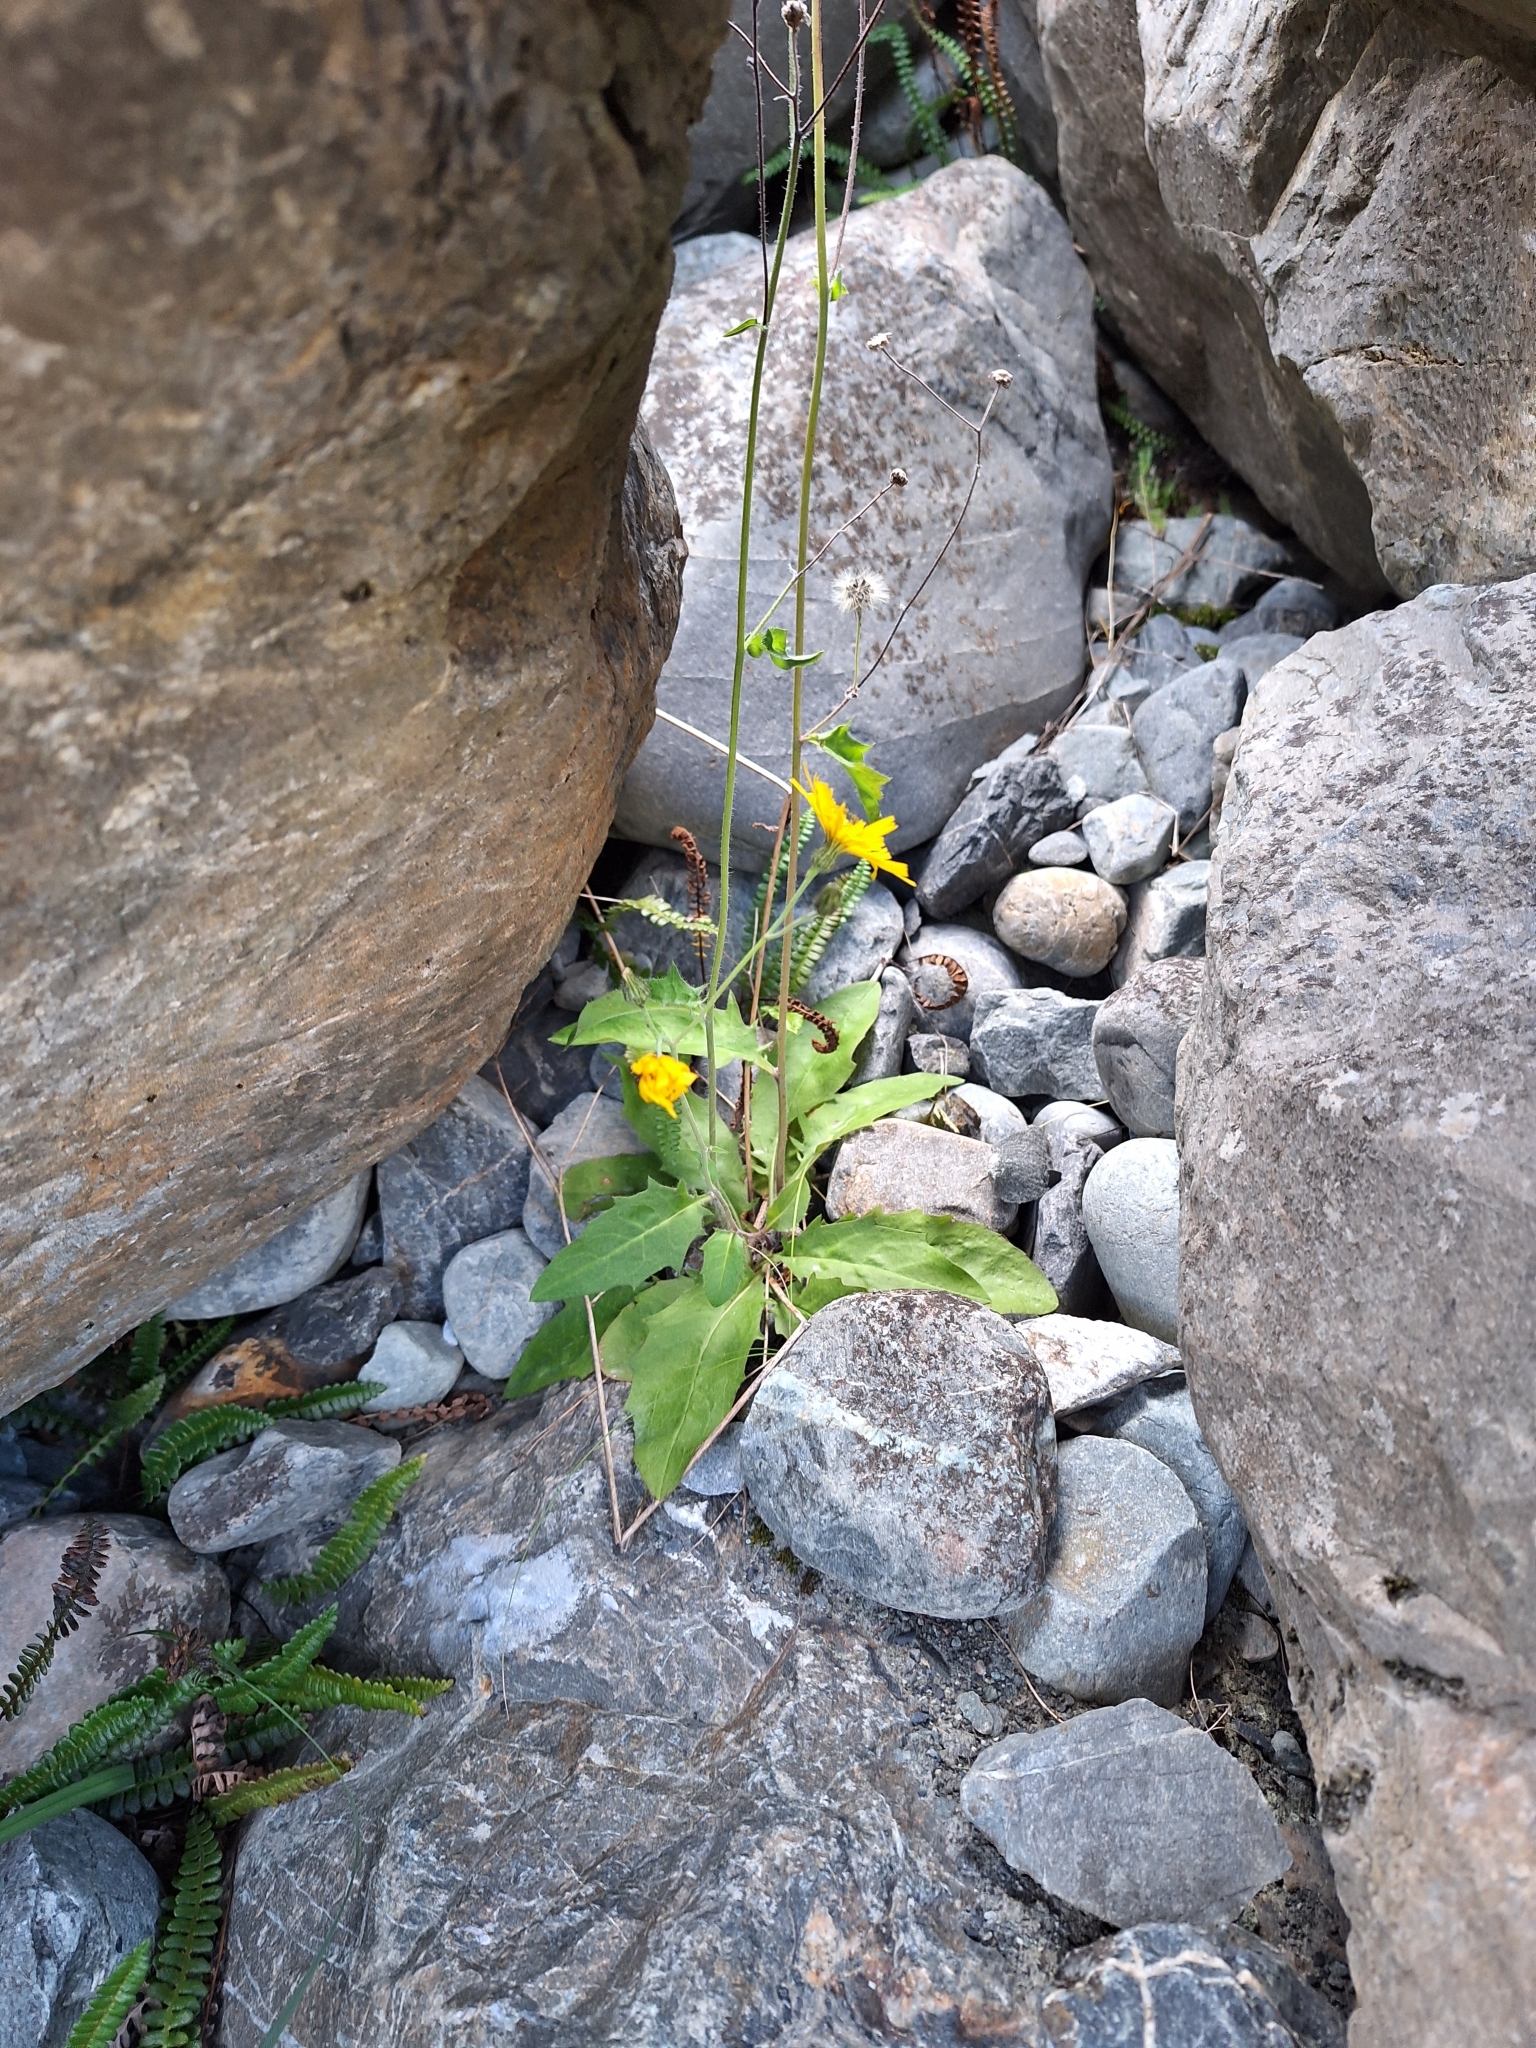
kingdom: Plantae
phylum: Tracheophyta
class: Magnoliopsida
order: Asterales
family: Asteraceae
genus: Hieracium
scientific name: Hieracium lepidulum
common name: Irregular-toothed hawkweed
